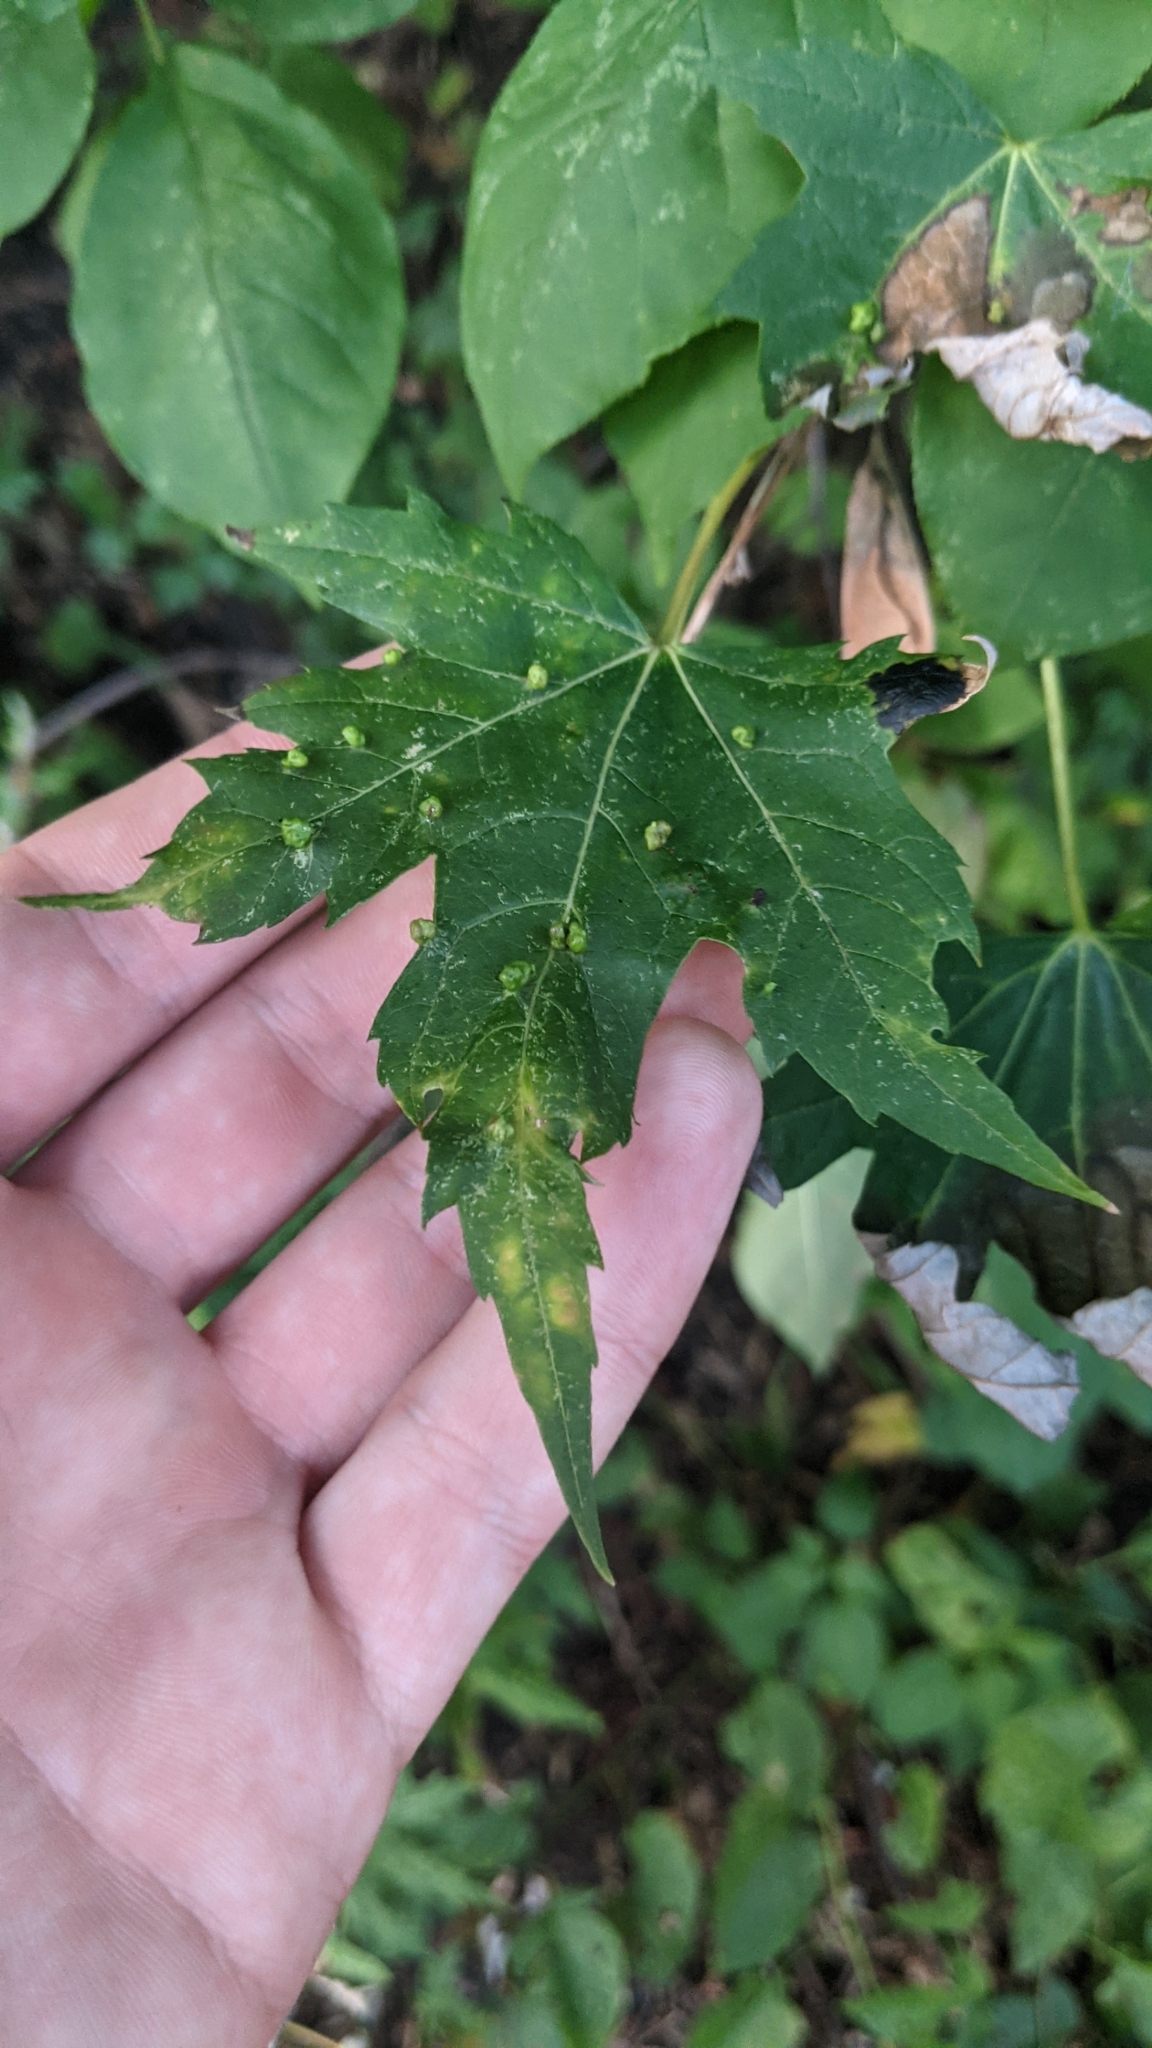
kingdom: Animalia
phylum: Arthropoda
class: Arachnida
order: Trombidiformes
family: Eriophyidae
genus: Vasates
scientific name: Vasates quadripedes
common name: Maple bladder gall mite
